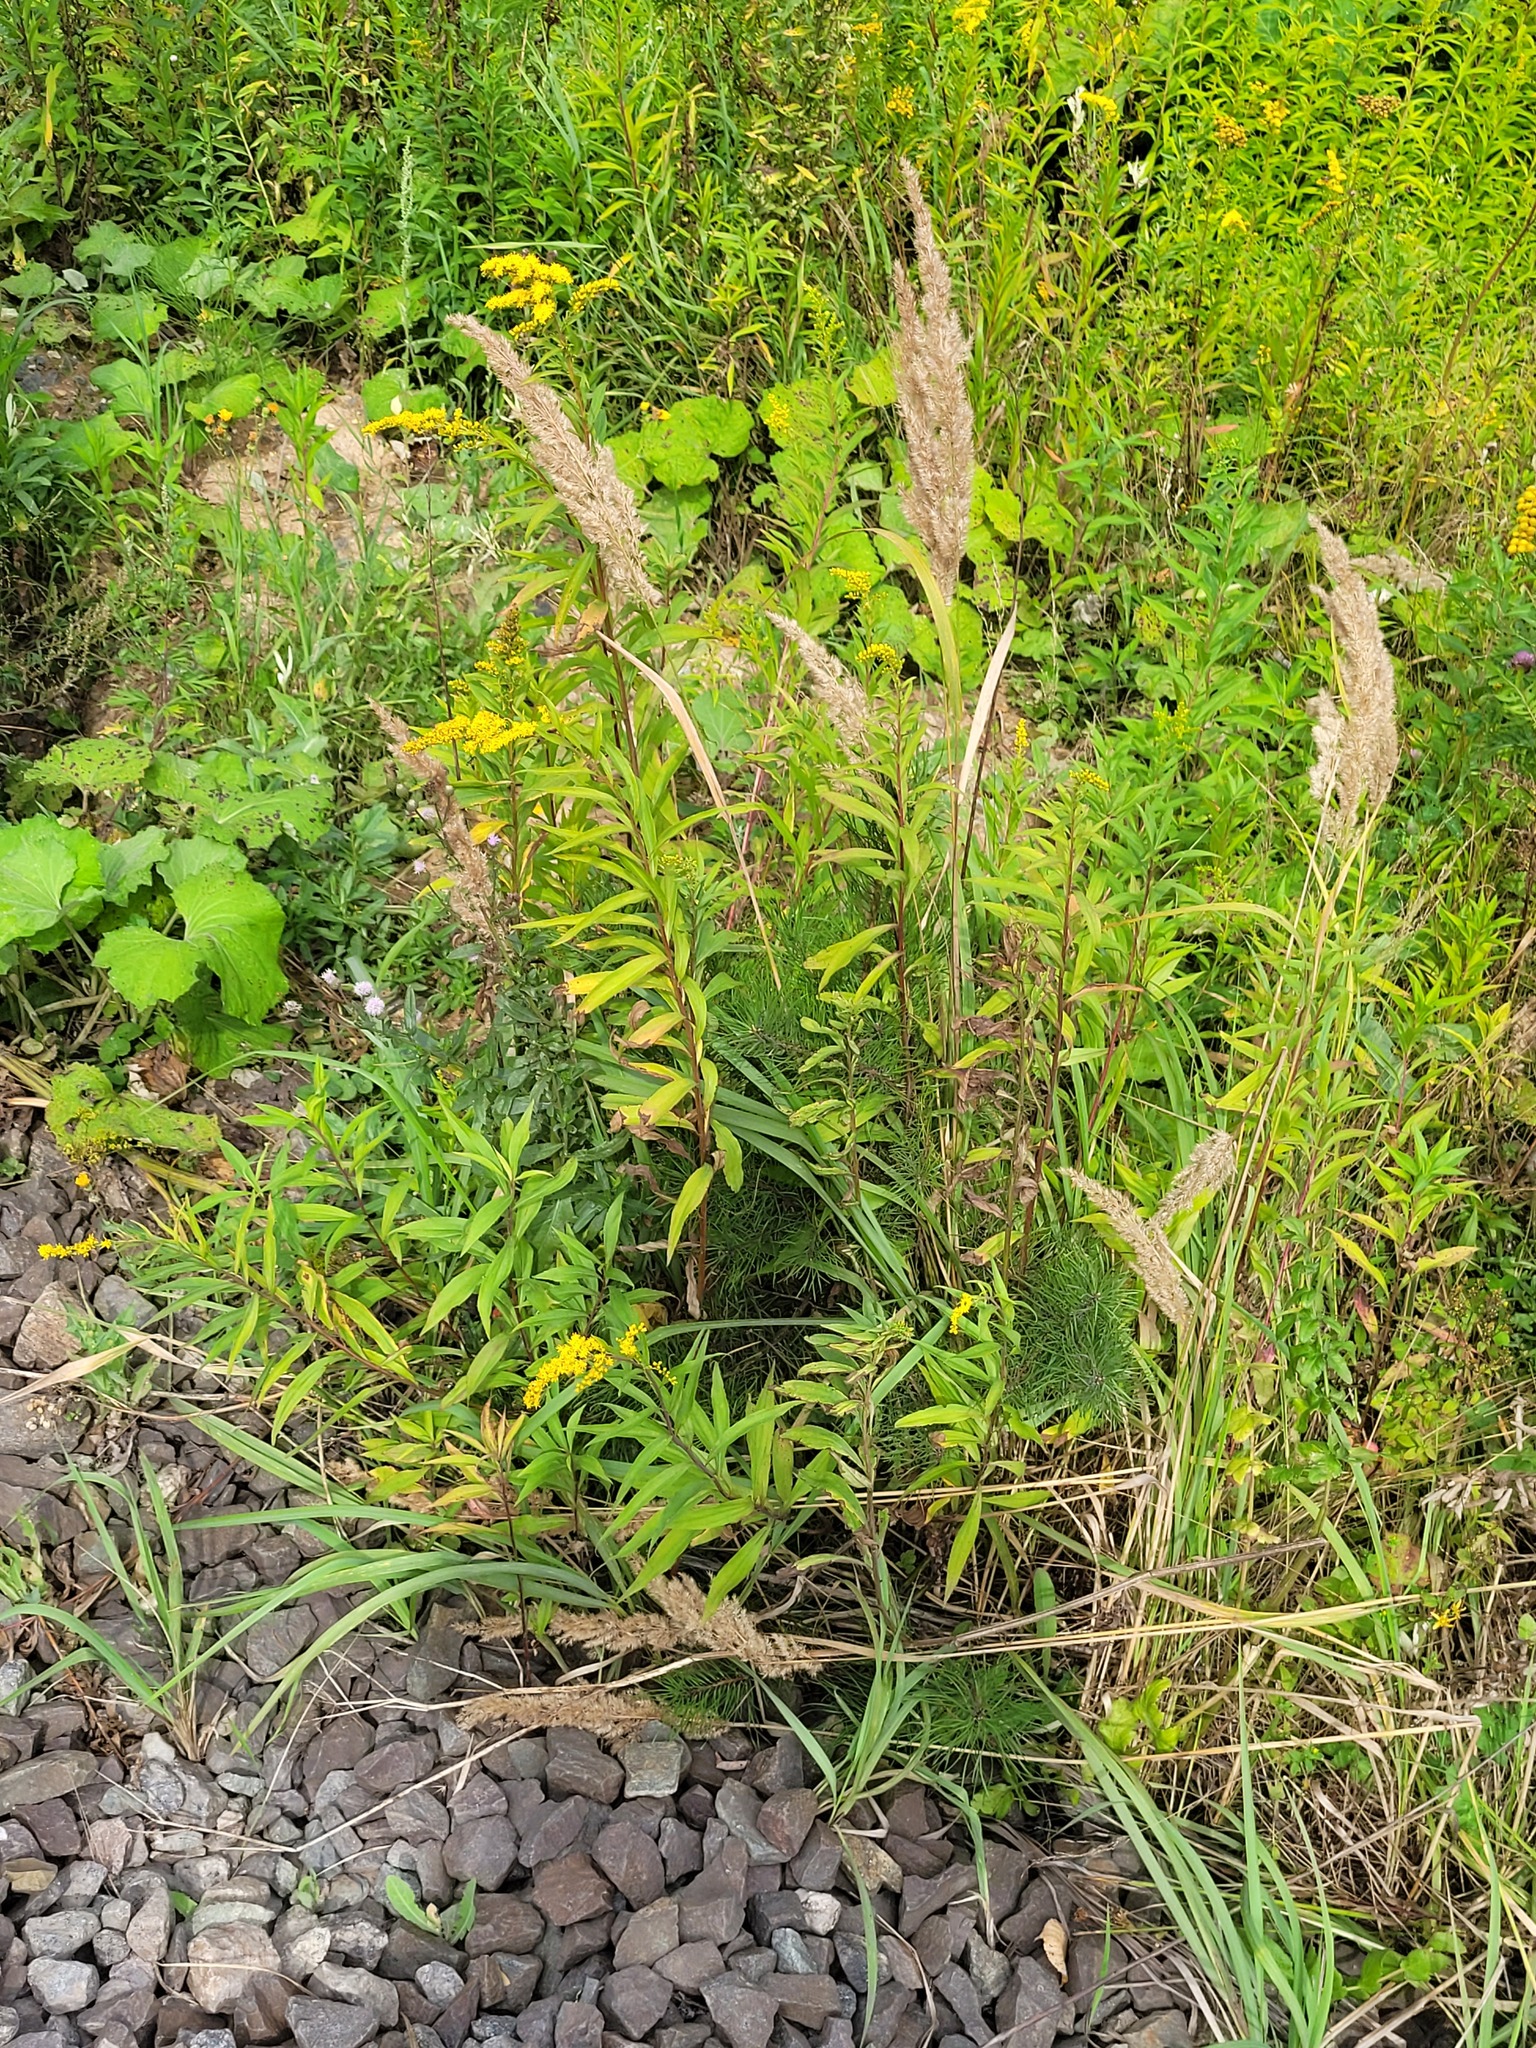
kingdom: Plantae
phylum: Tracheophyta
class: Pinopsida
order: Pinales
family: Pinaceae
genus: Pinus
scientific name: Pinus sylvestris
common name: Scots pine
